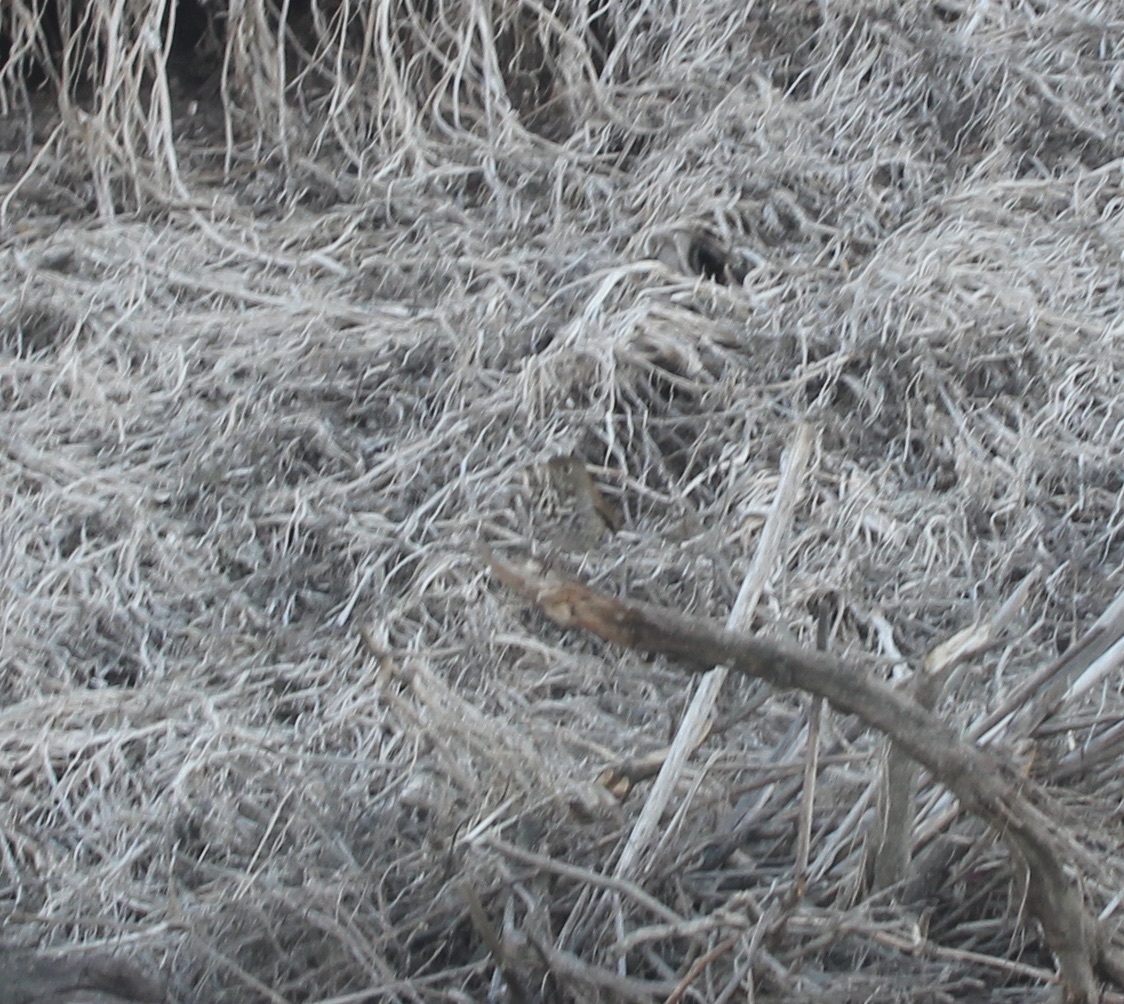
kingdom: Animalia
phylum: Chordata
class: Aves
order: Passeriformes
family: Turdidae
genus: Catharus
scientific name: Catharus guttatus
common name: Hermit thrush
